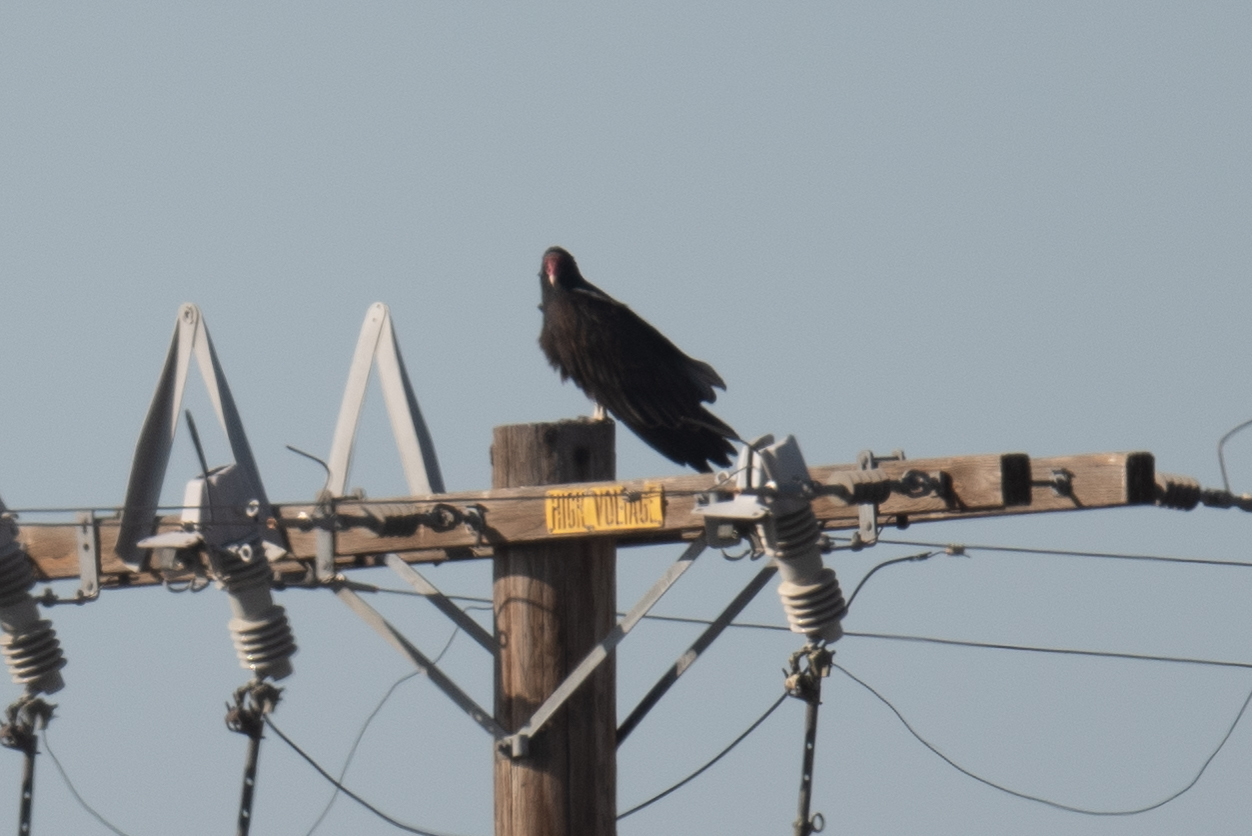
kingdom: Animalia
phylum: Chordata
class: Aves
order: Accipitriformes
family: Cathartidae
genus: Cathartes
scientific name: Cathartes aura
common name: Turkey vulture
